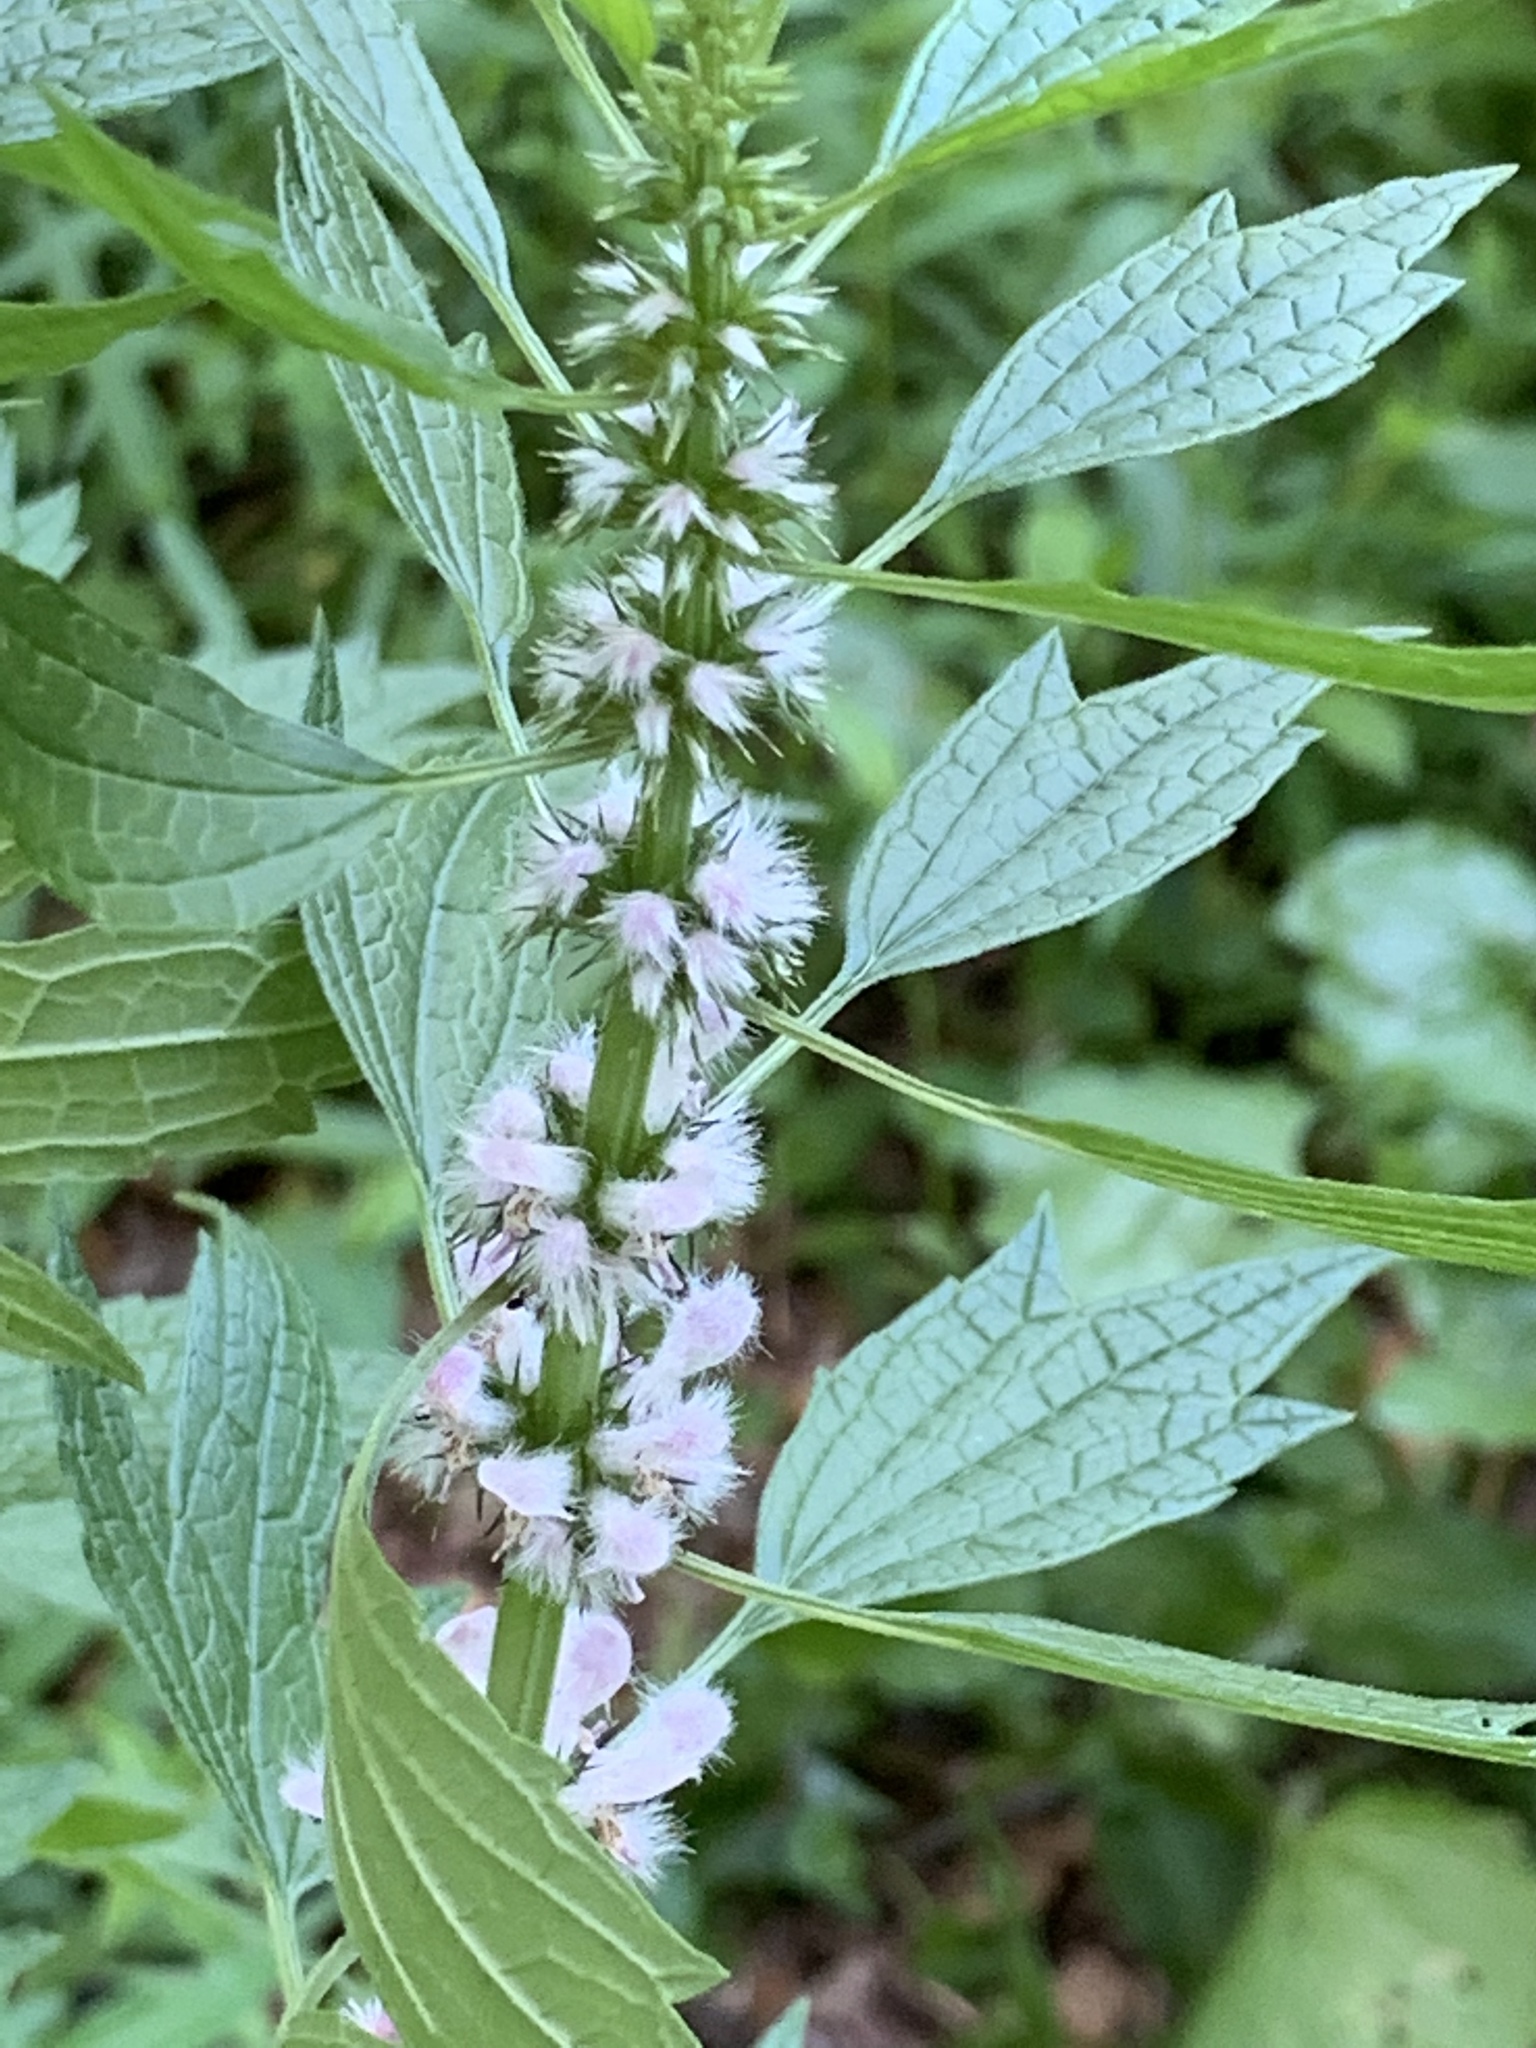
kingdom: Plantae
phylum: Tracheophyta
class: Magnoliopsida
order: Lamiales
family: Lamiaceae
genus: Leonurus
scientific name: Leonurus cardiaca
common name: Motherwort
